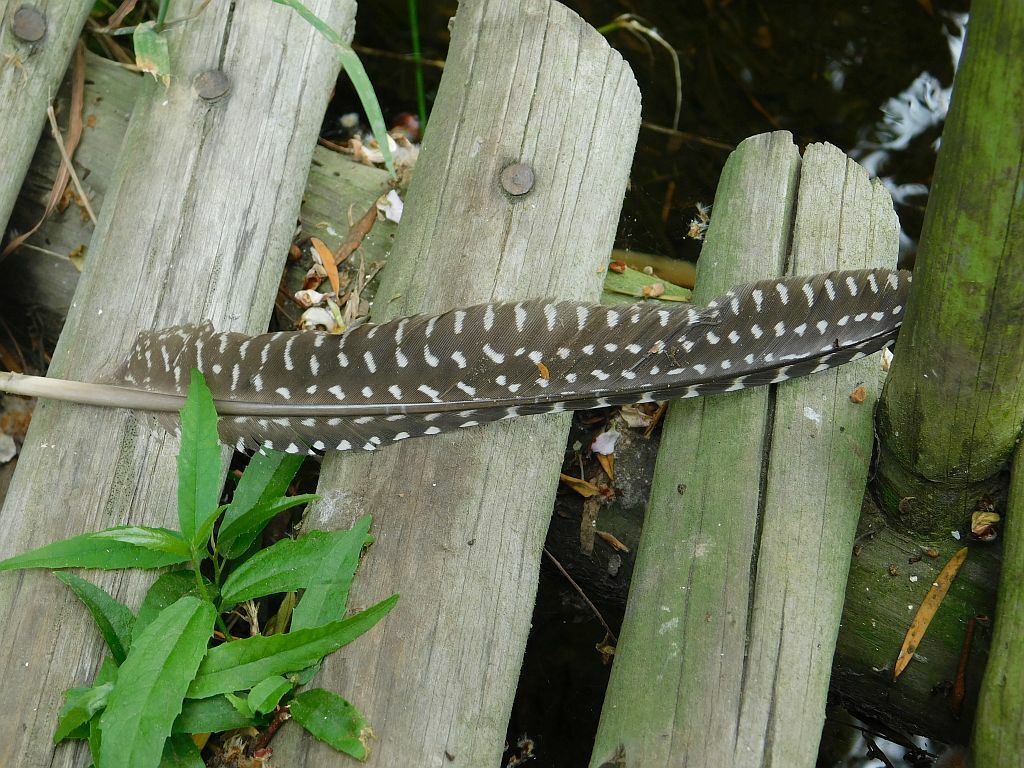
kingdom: Animalia
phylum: Chordata
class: Aves
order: Galliformes
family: Numididae
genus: Numida
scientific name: Numida meleagris
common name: Helmeted guineafowl
